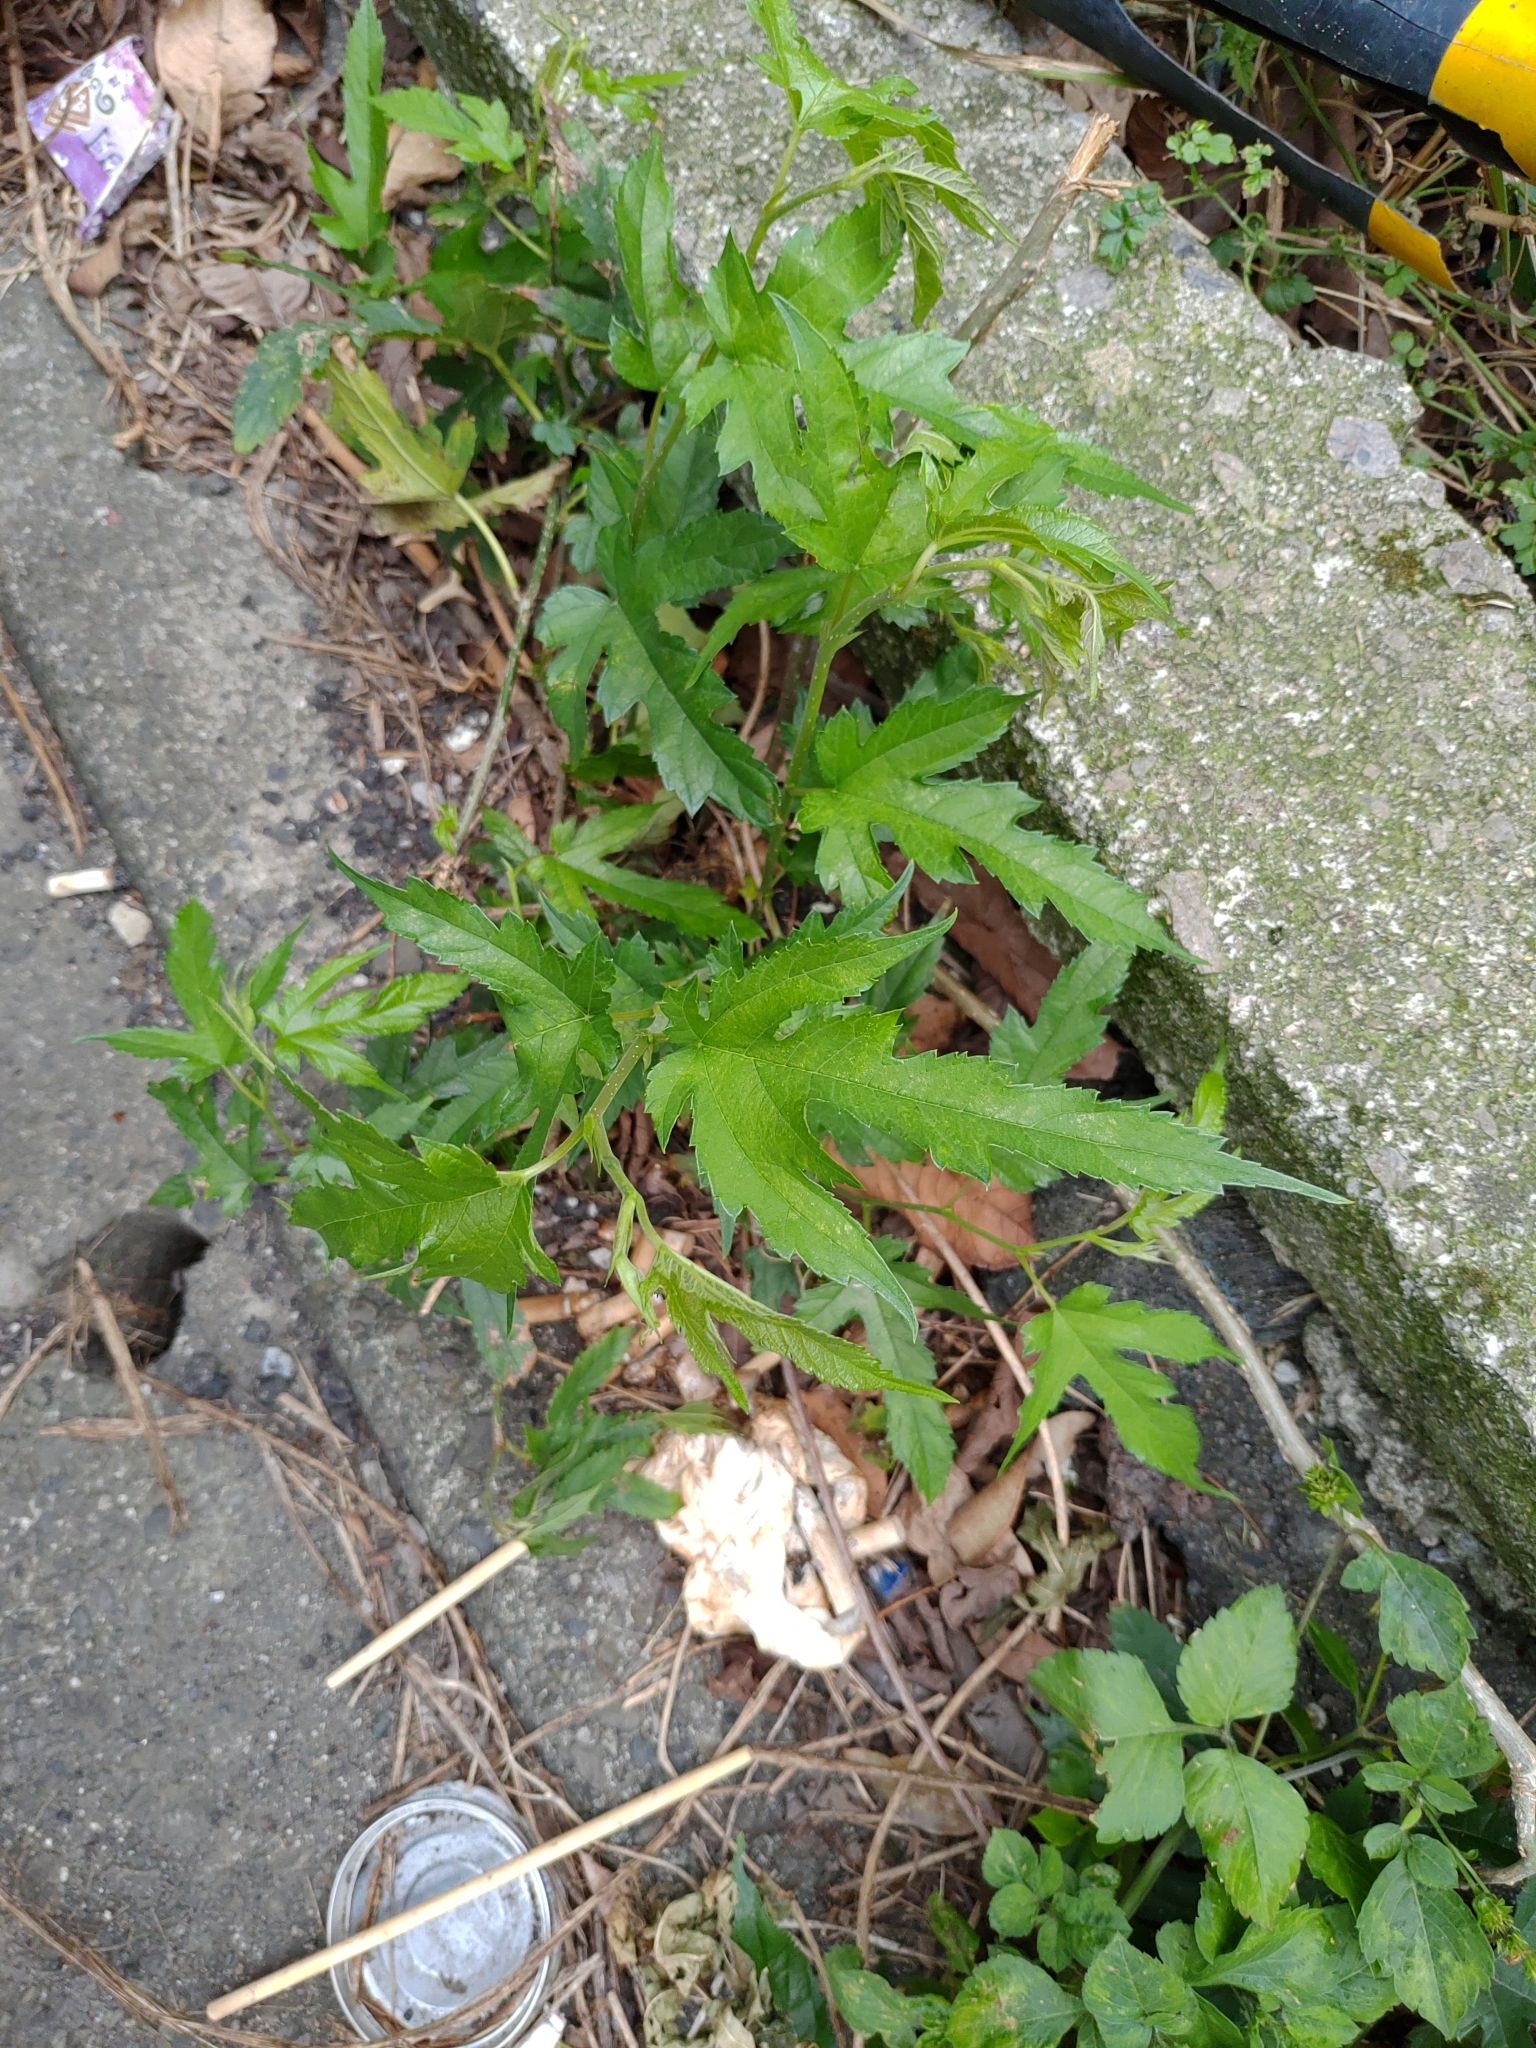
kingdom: Plantae
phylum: Tracheophyta
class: Magnoliopsida
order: Rosales
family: Moraceae
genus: Morus
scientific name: Morus indica
